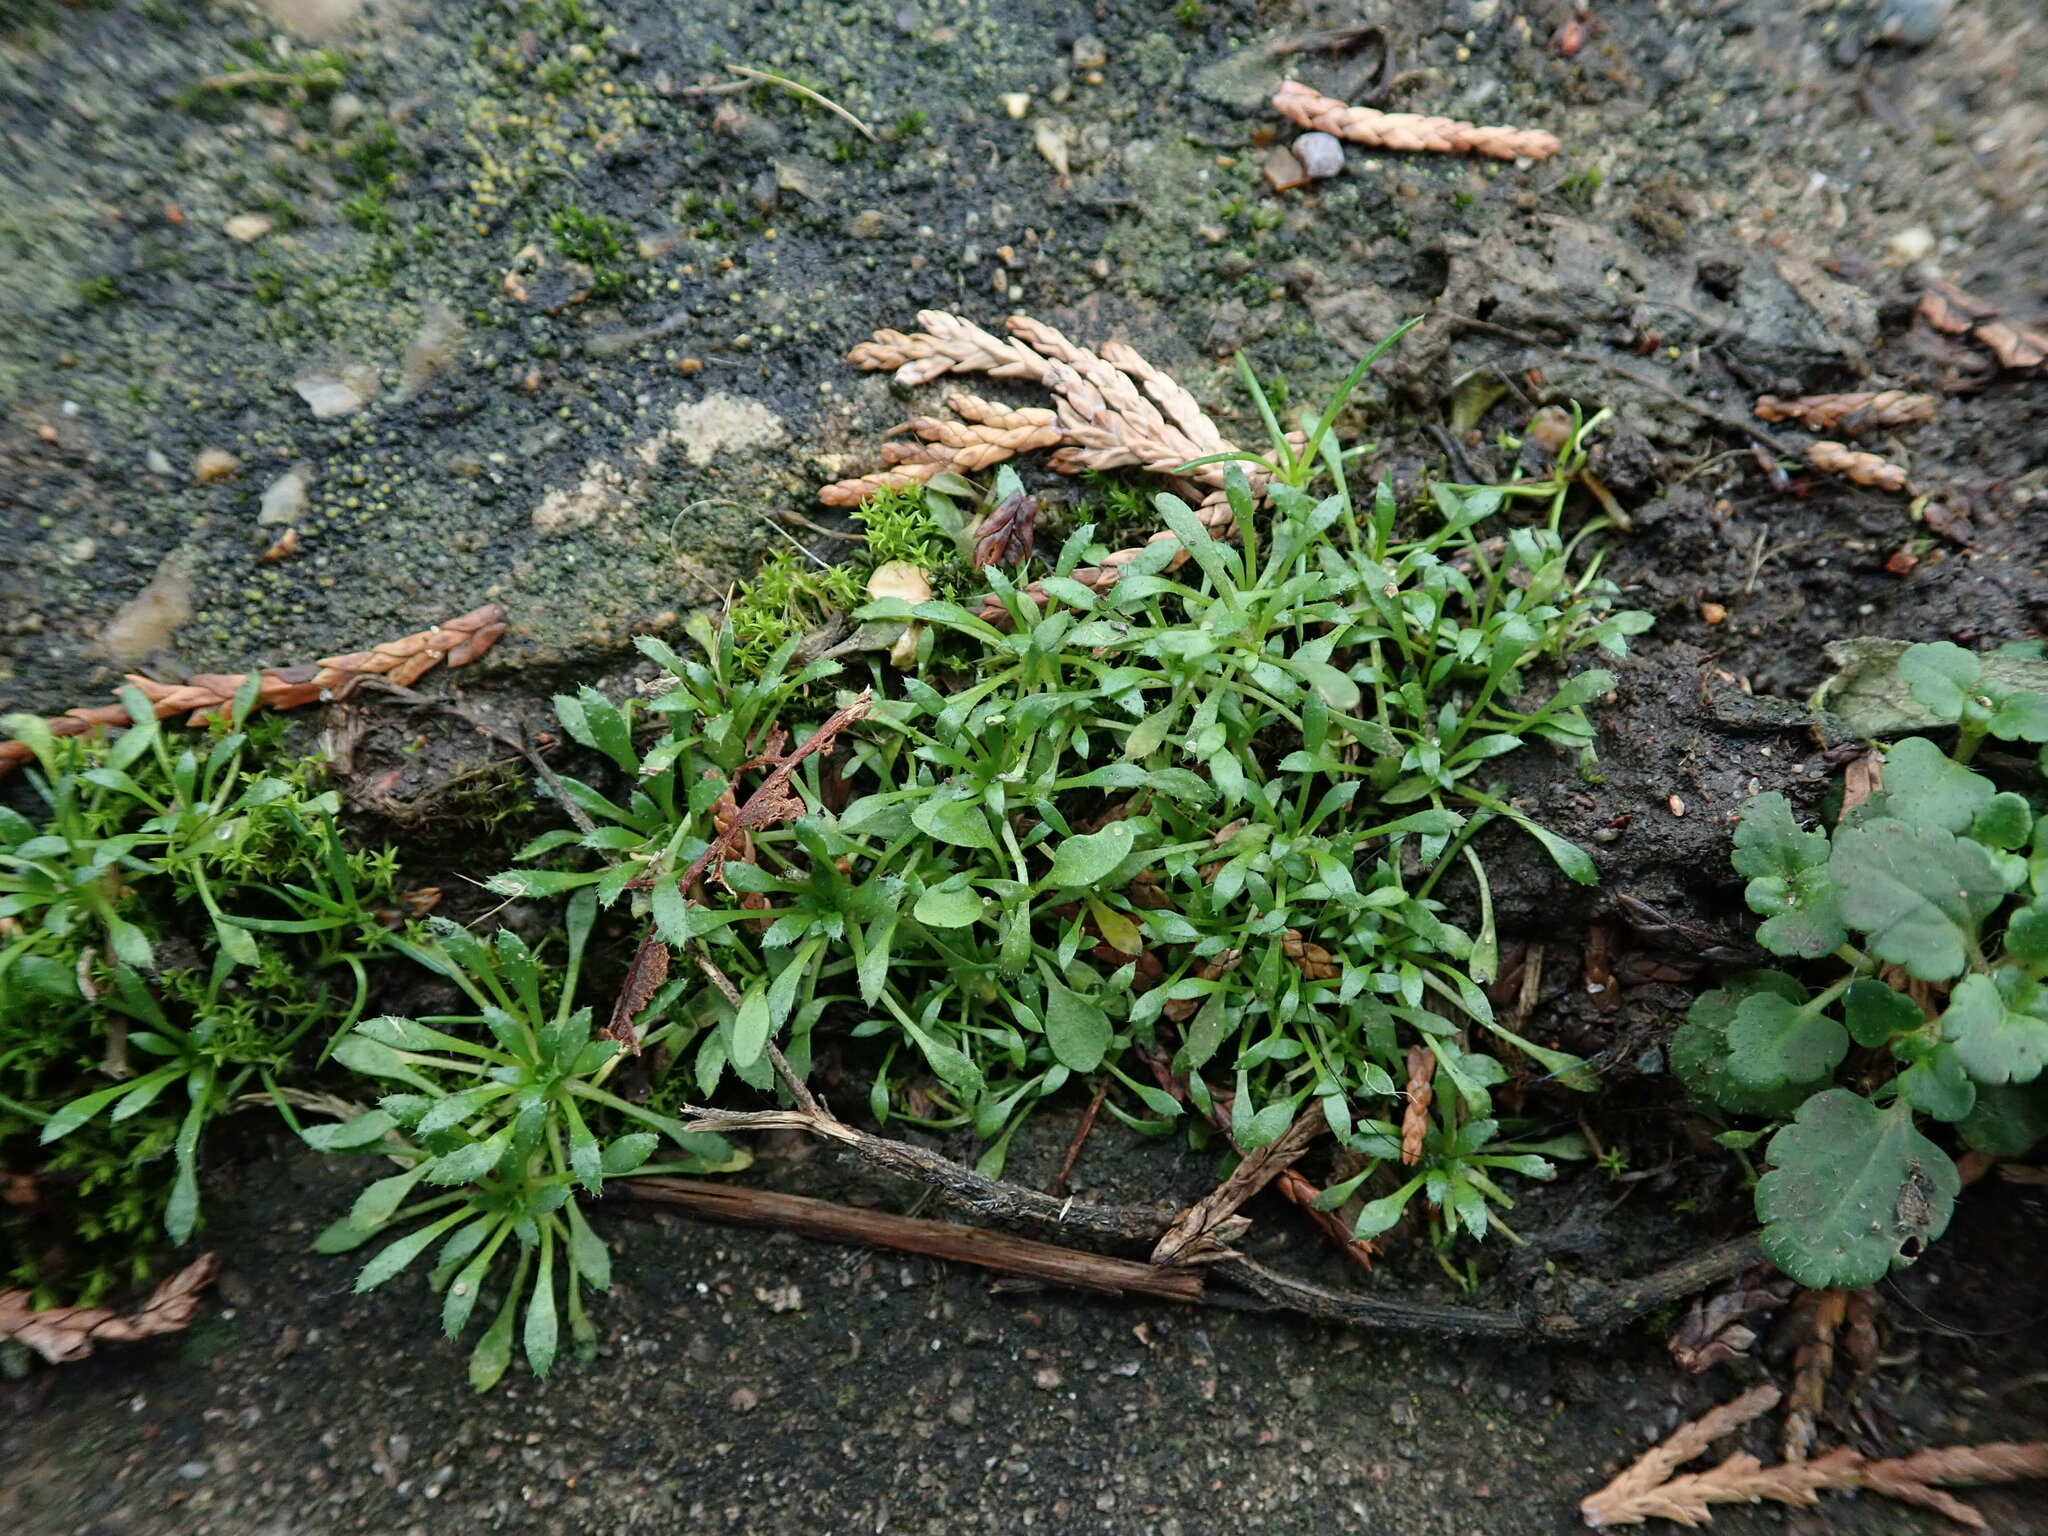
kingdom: Plantae
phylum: Tracheophyta
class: Magnoliopsida
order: Brassicales
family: Brassicaceae
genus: Draba
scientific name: Draba verna
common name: Spring draba
